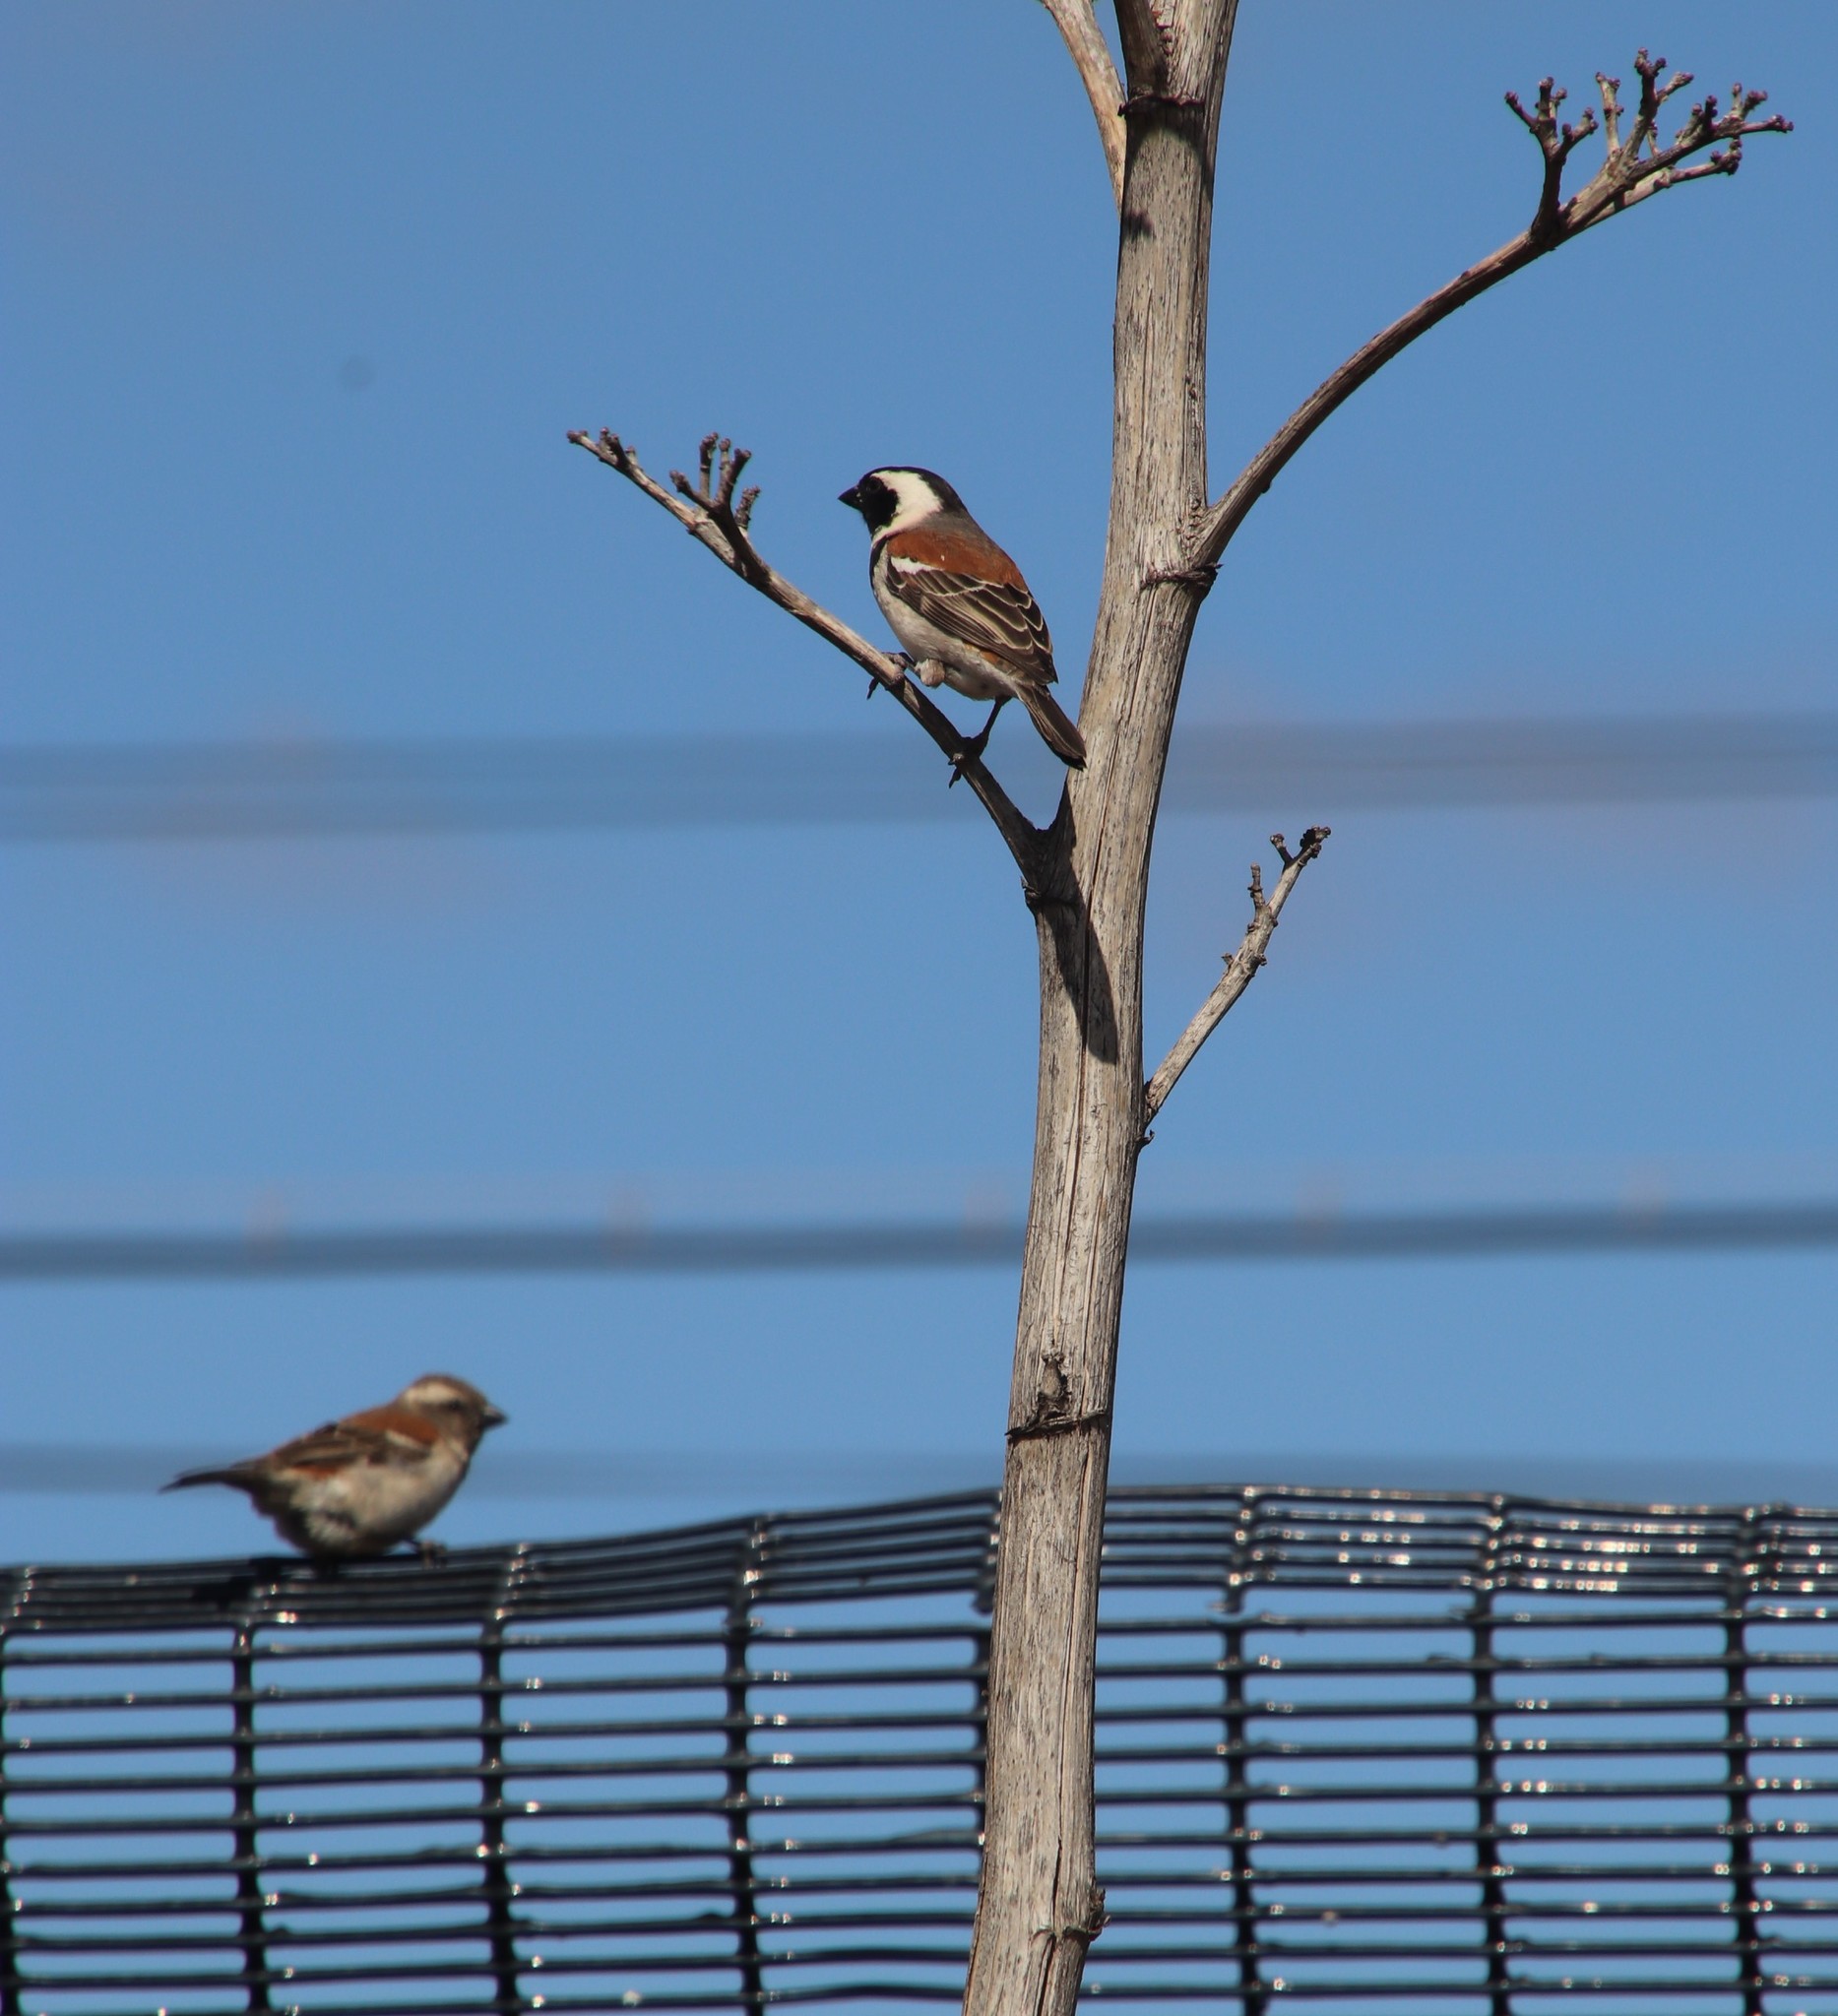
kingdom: Animalia
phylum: Chordata
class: Aves
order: Passeriformes
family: Passeridae
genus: Passer
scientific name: Passer melanurus
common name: Cape sparrow
